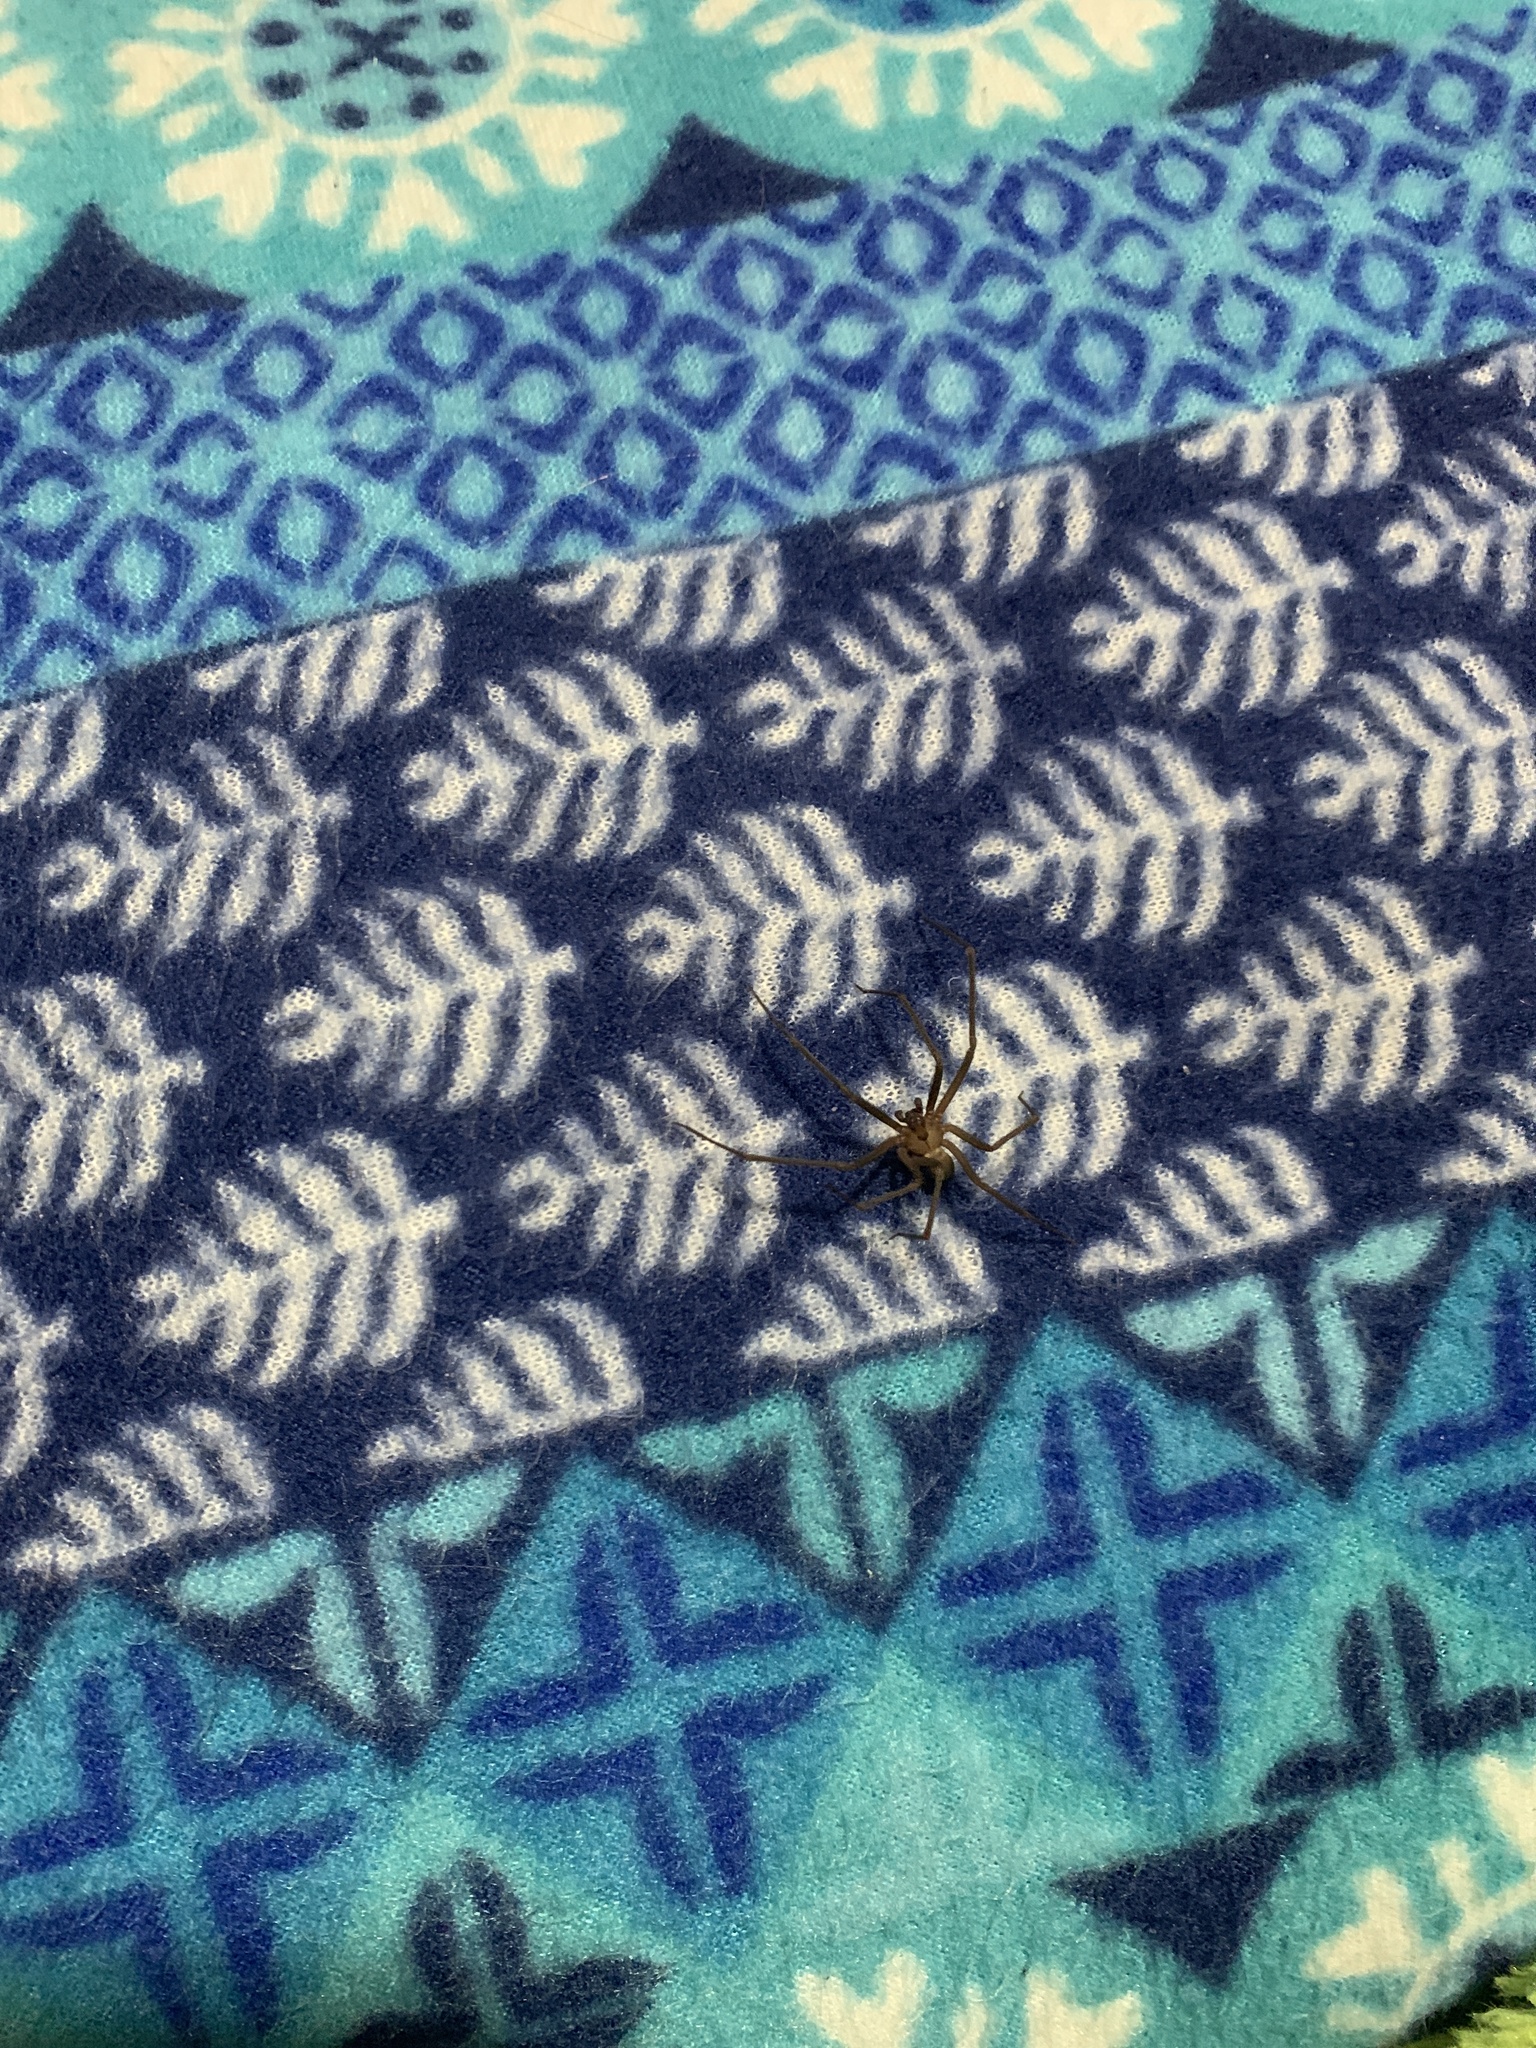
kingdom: Animalia
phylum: Arthropoda
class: Arachnida
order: Araneae
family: Sicariidae
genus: Loxosceles
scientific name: Loxosceles reclusa
